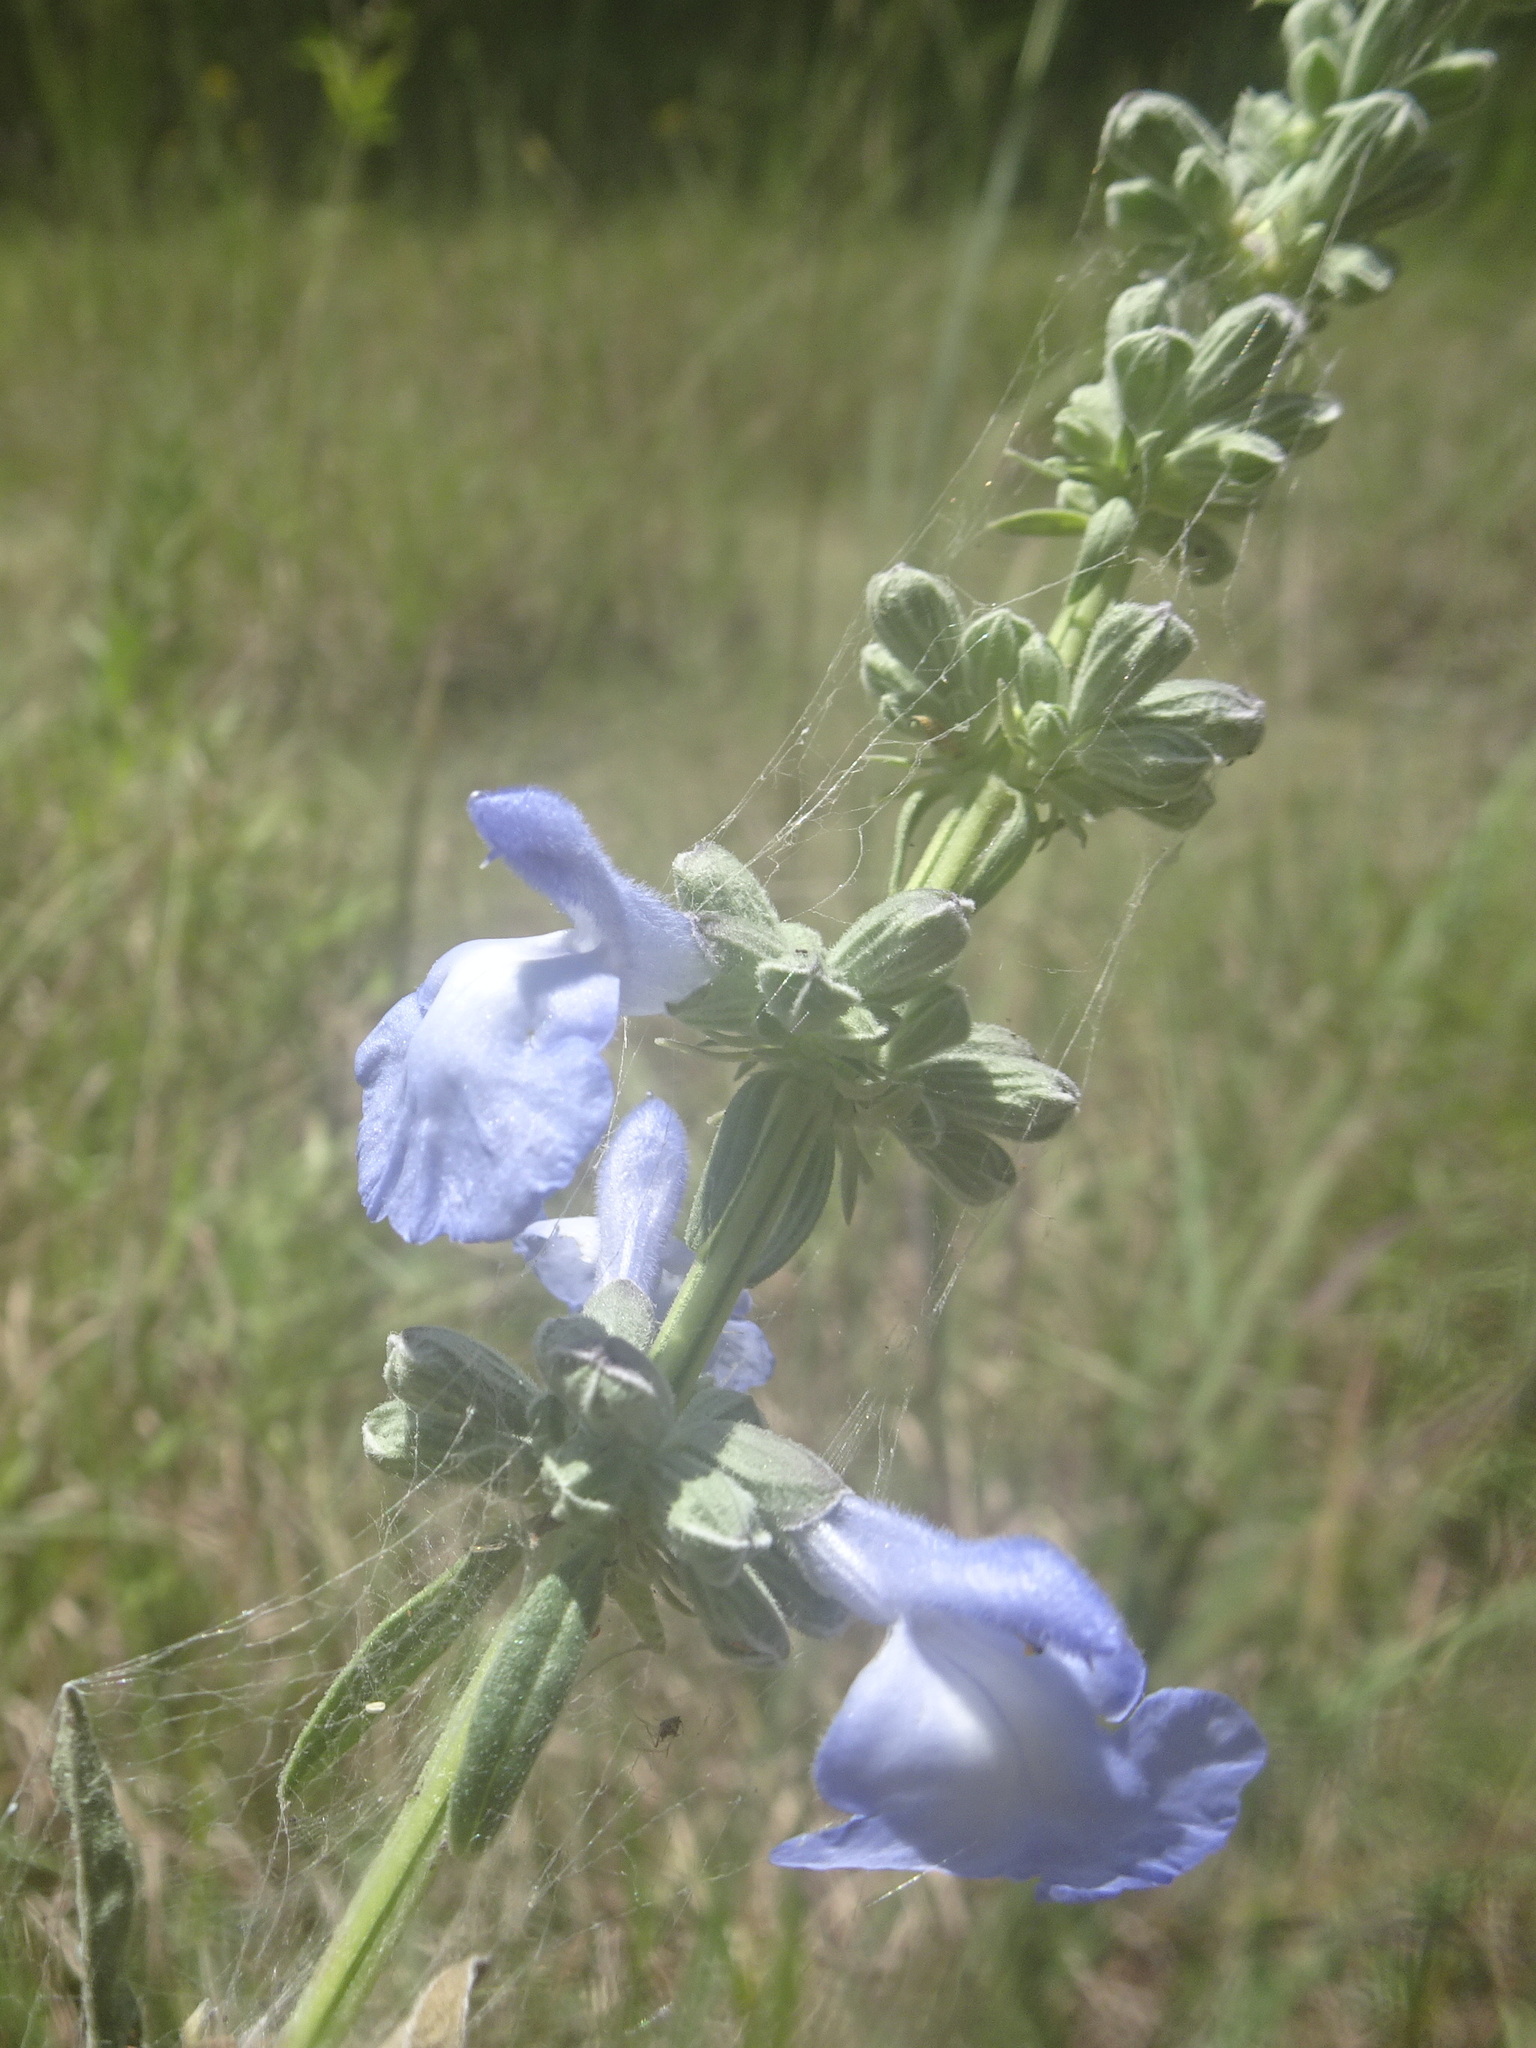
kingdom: Plantae
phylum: Tracheophyta
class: Magnoliopsida
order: Lamiales
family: Lamiaceae
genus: Salvia
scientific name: Salvia azurea
